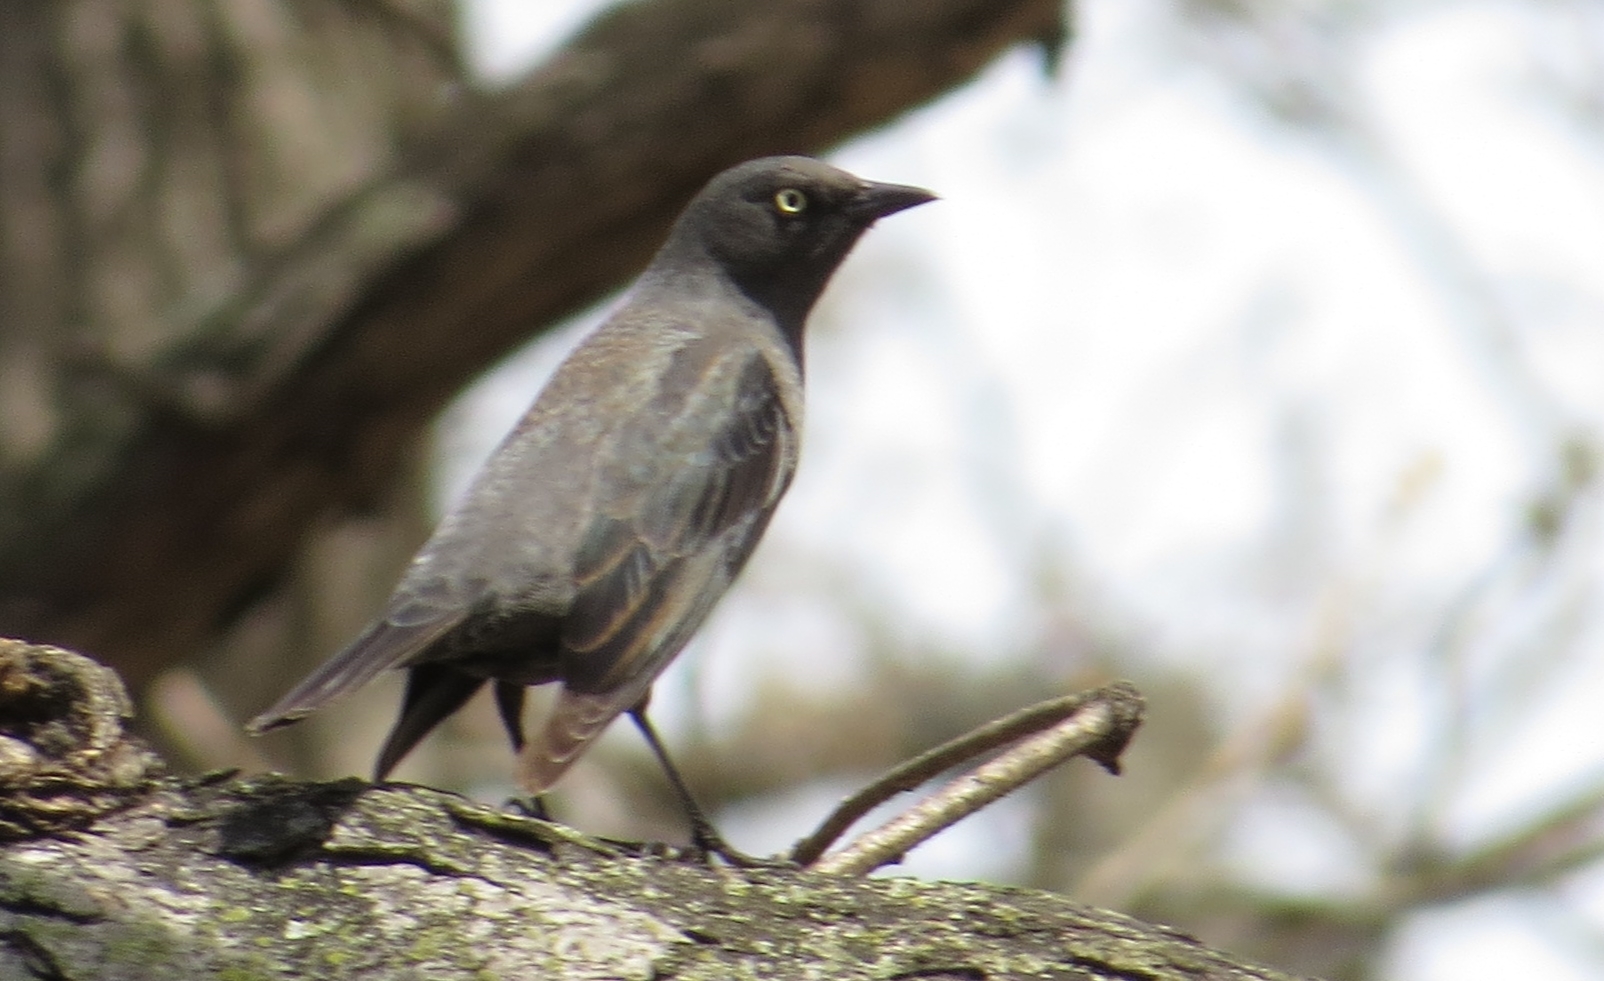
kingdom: Animalia
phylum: Chordata
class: Aves
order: Passeriformes
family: Icteridae
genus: Euphagus
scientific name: Euphagus carolinus
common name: Rusty blackbird
